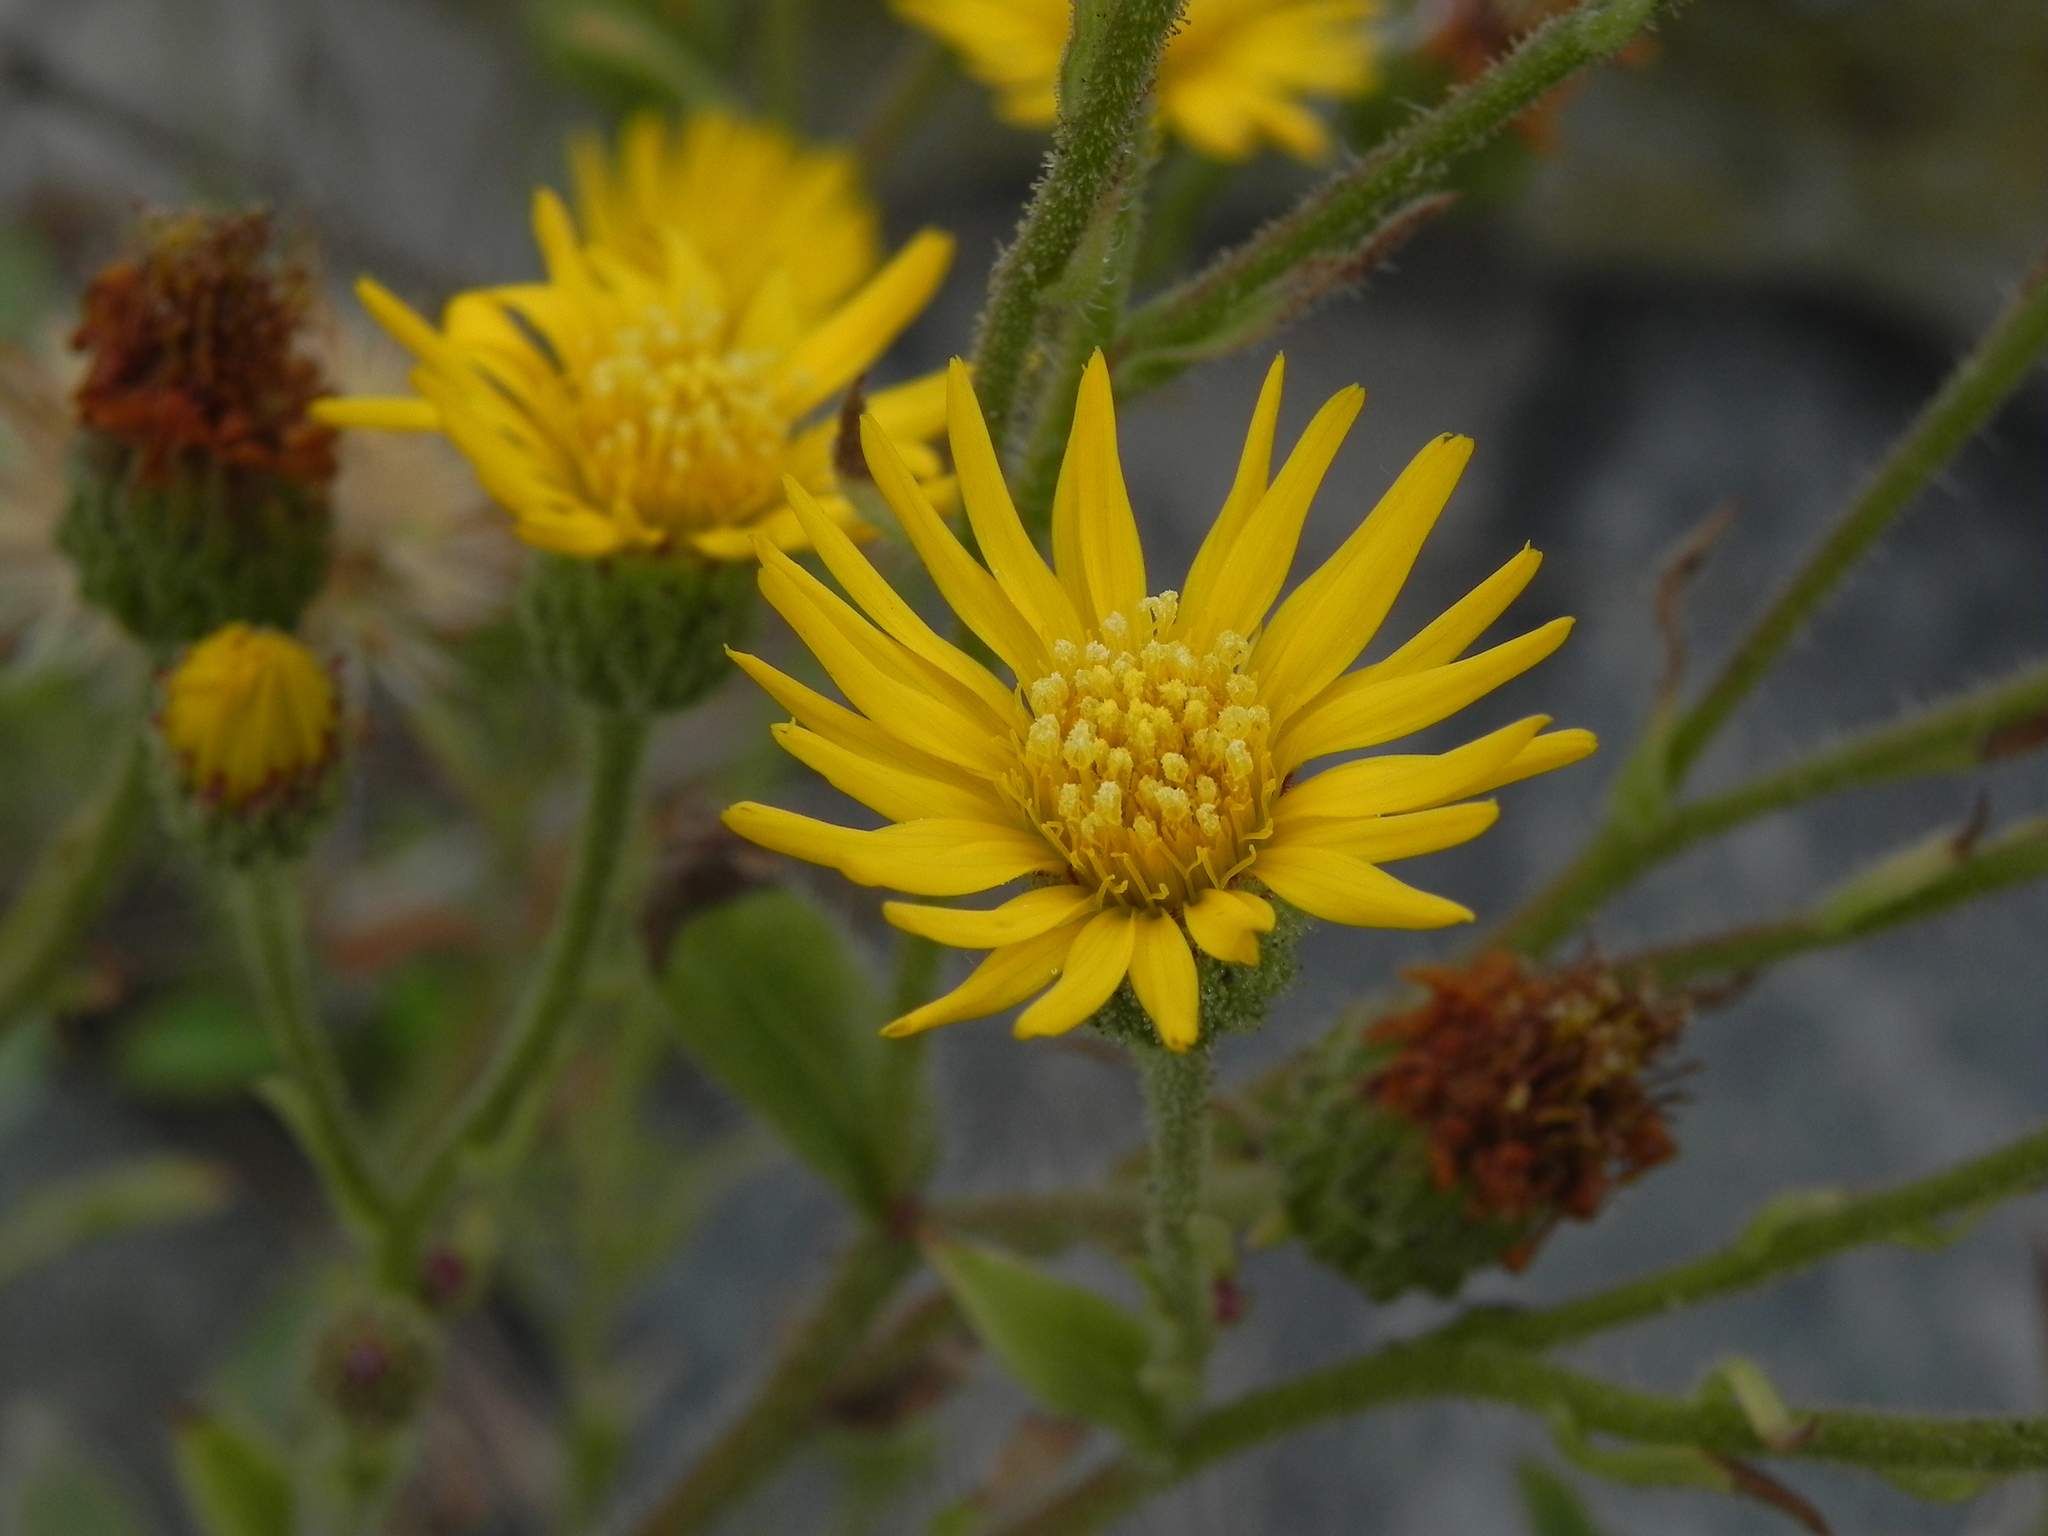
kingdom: Plantae
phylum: Tracheophyta
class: Magnoliopsida
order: Asterales
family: Asteraceae
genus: Heterotheca
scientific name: Heterotheca grandiflora
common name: Telegraphweed
